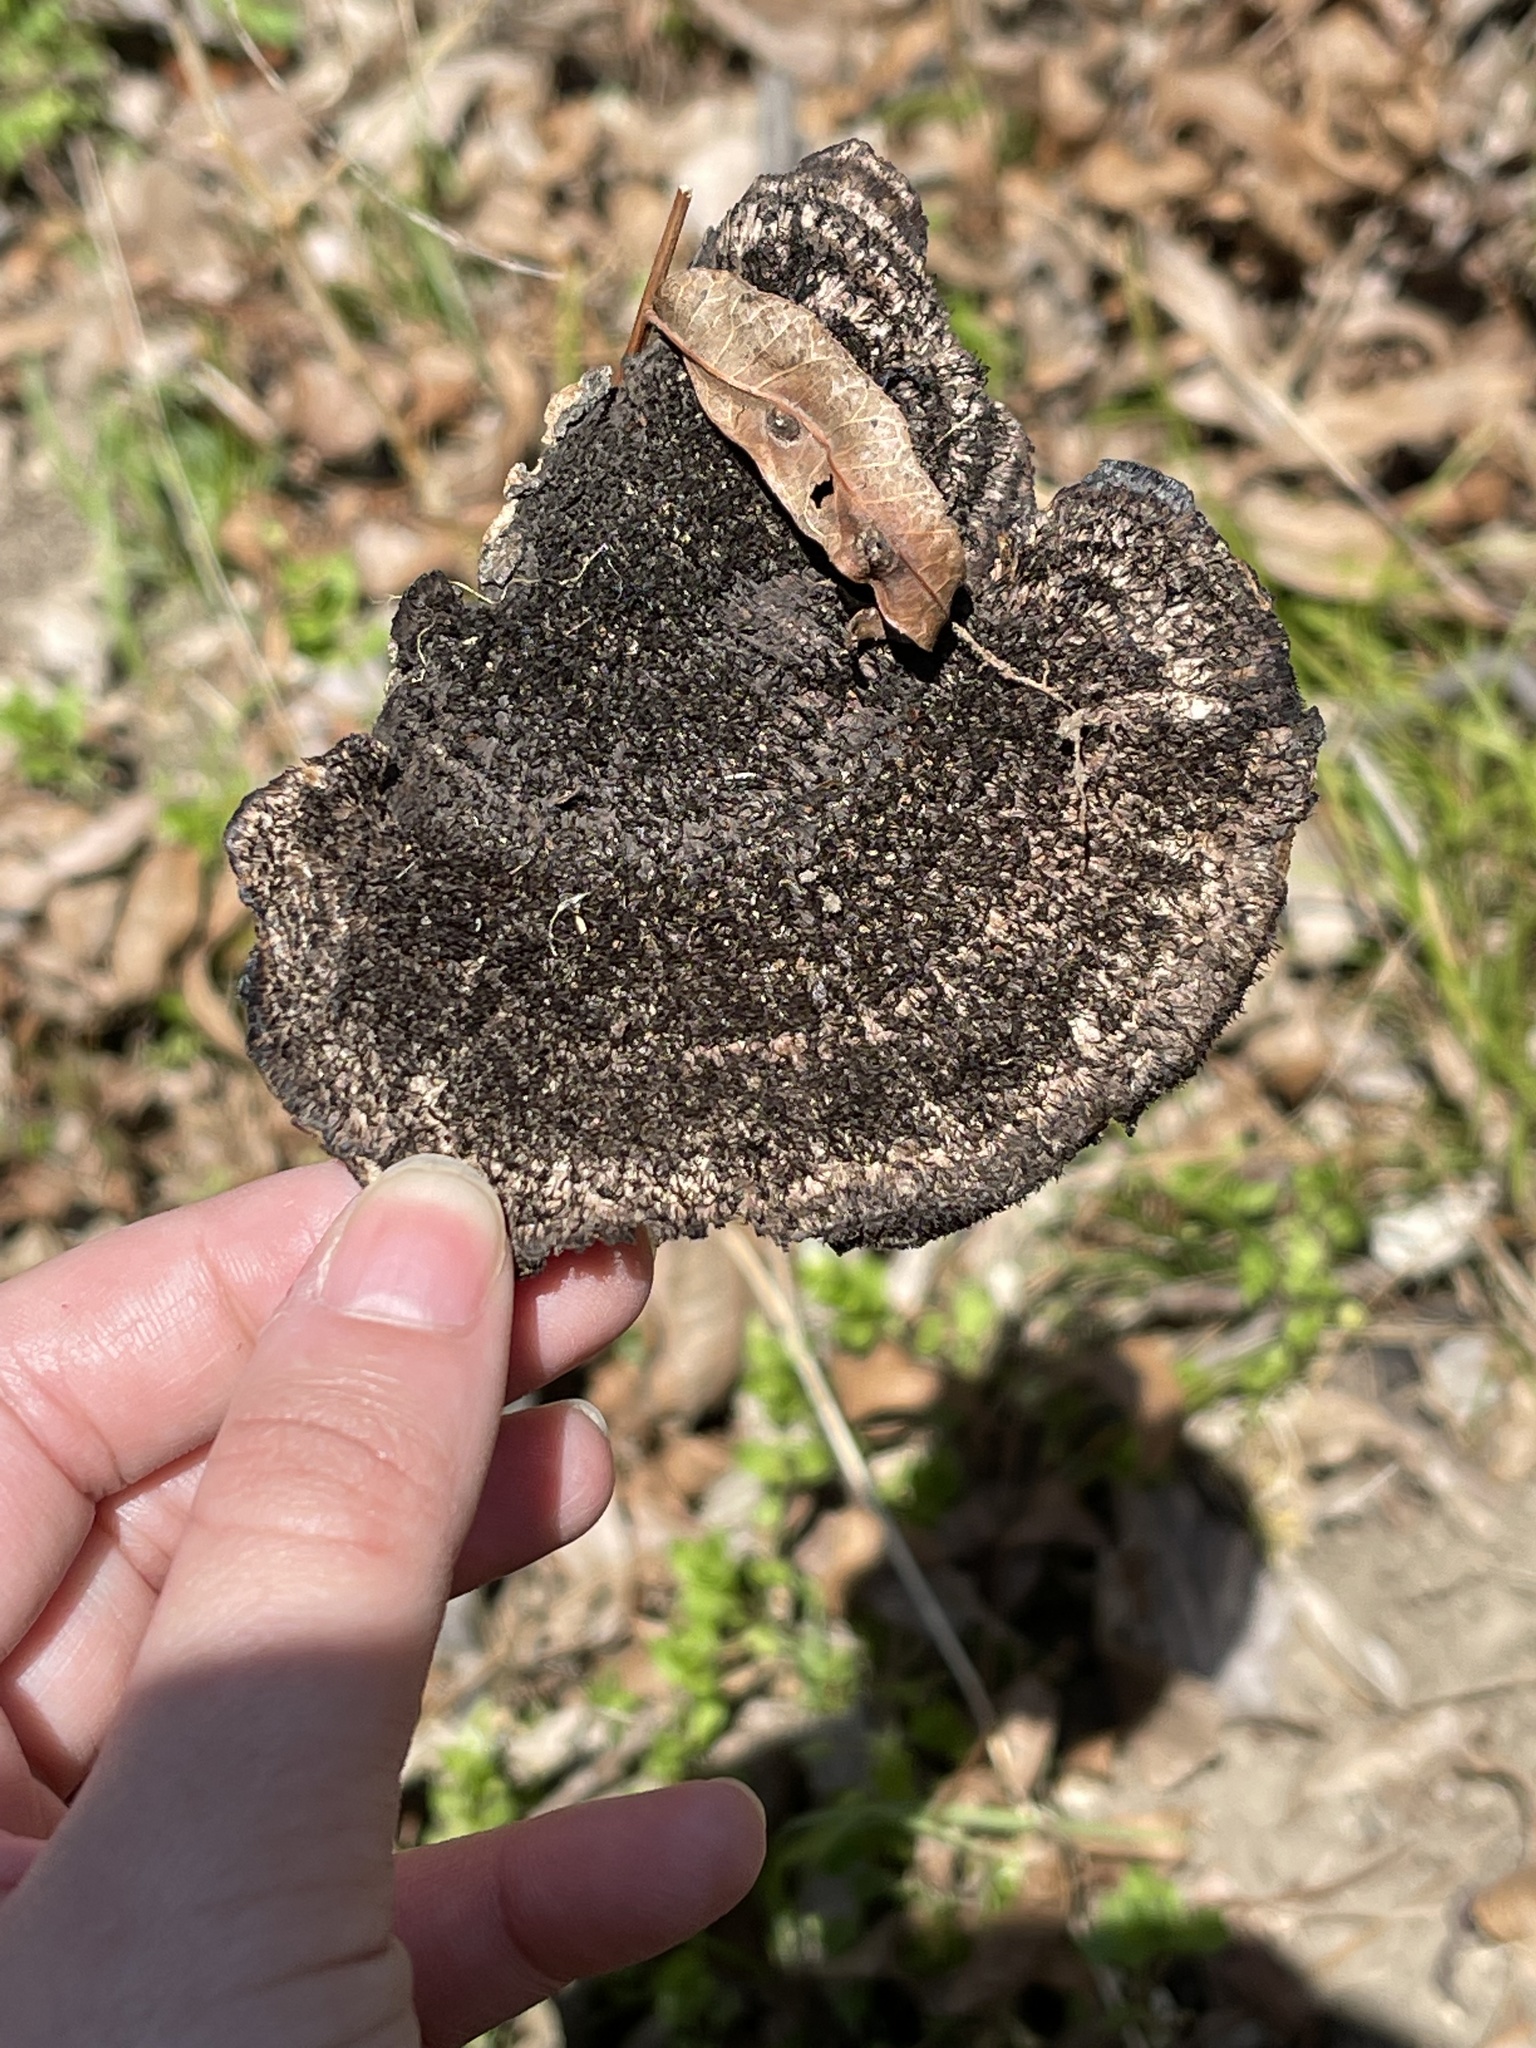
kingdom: Fungi
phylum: Basidiomycota
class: Agaricomycetes
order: Polyporales
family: Cerrenaceae
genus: Cerrena
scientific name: Cerrena hydnoides
